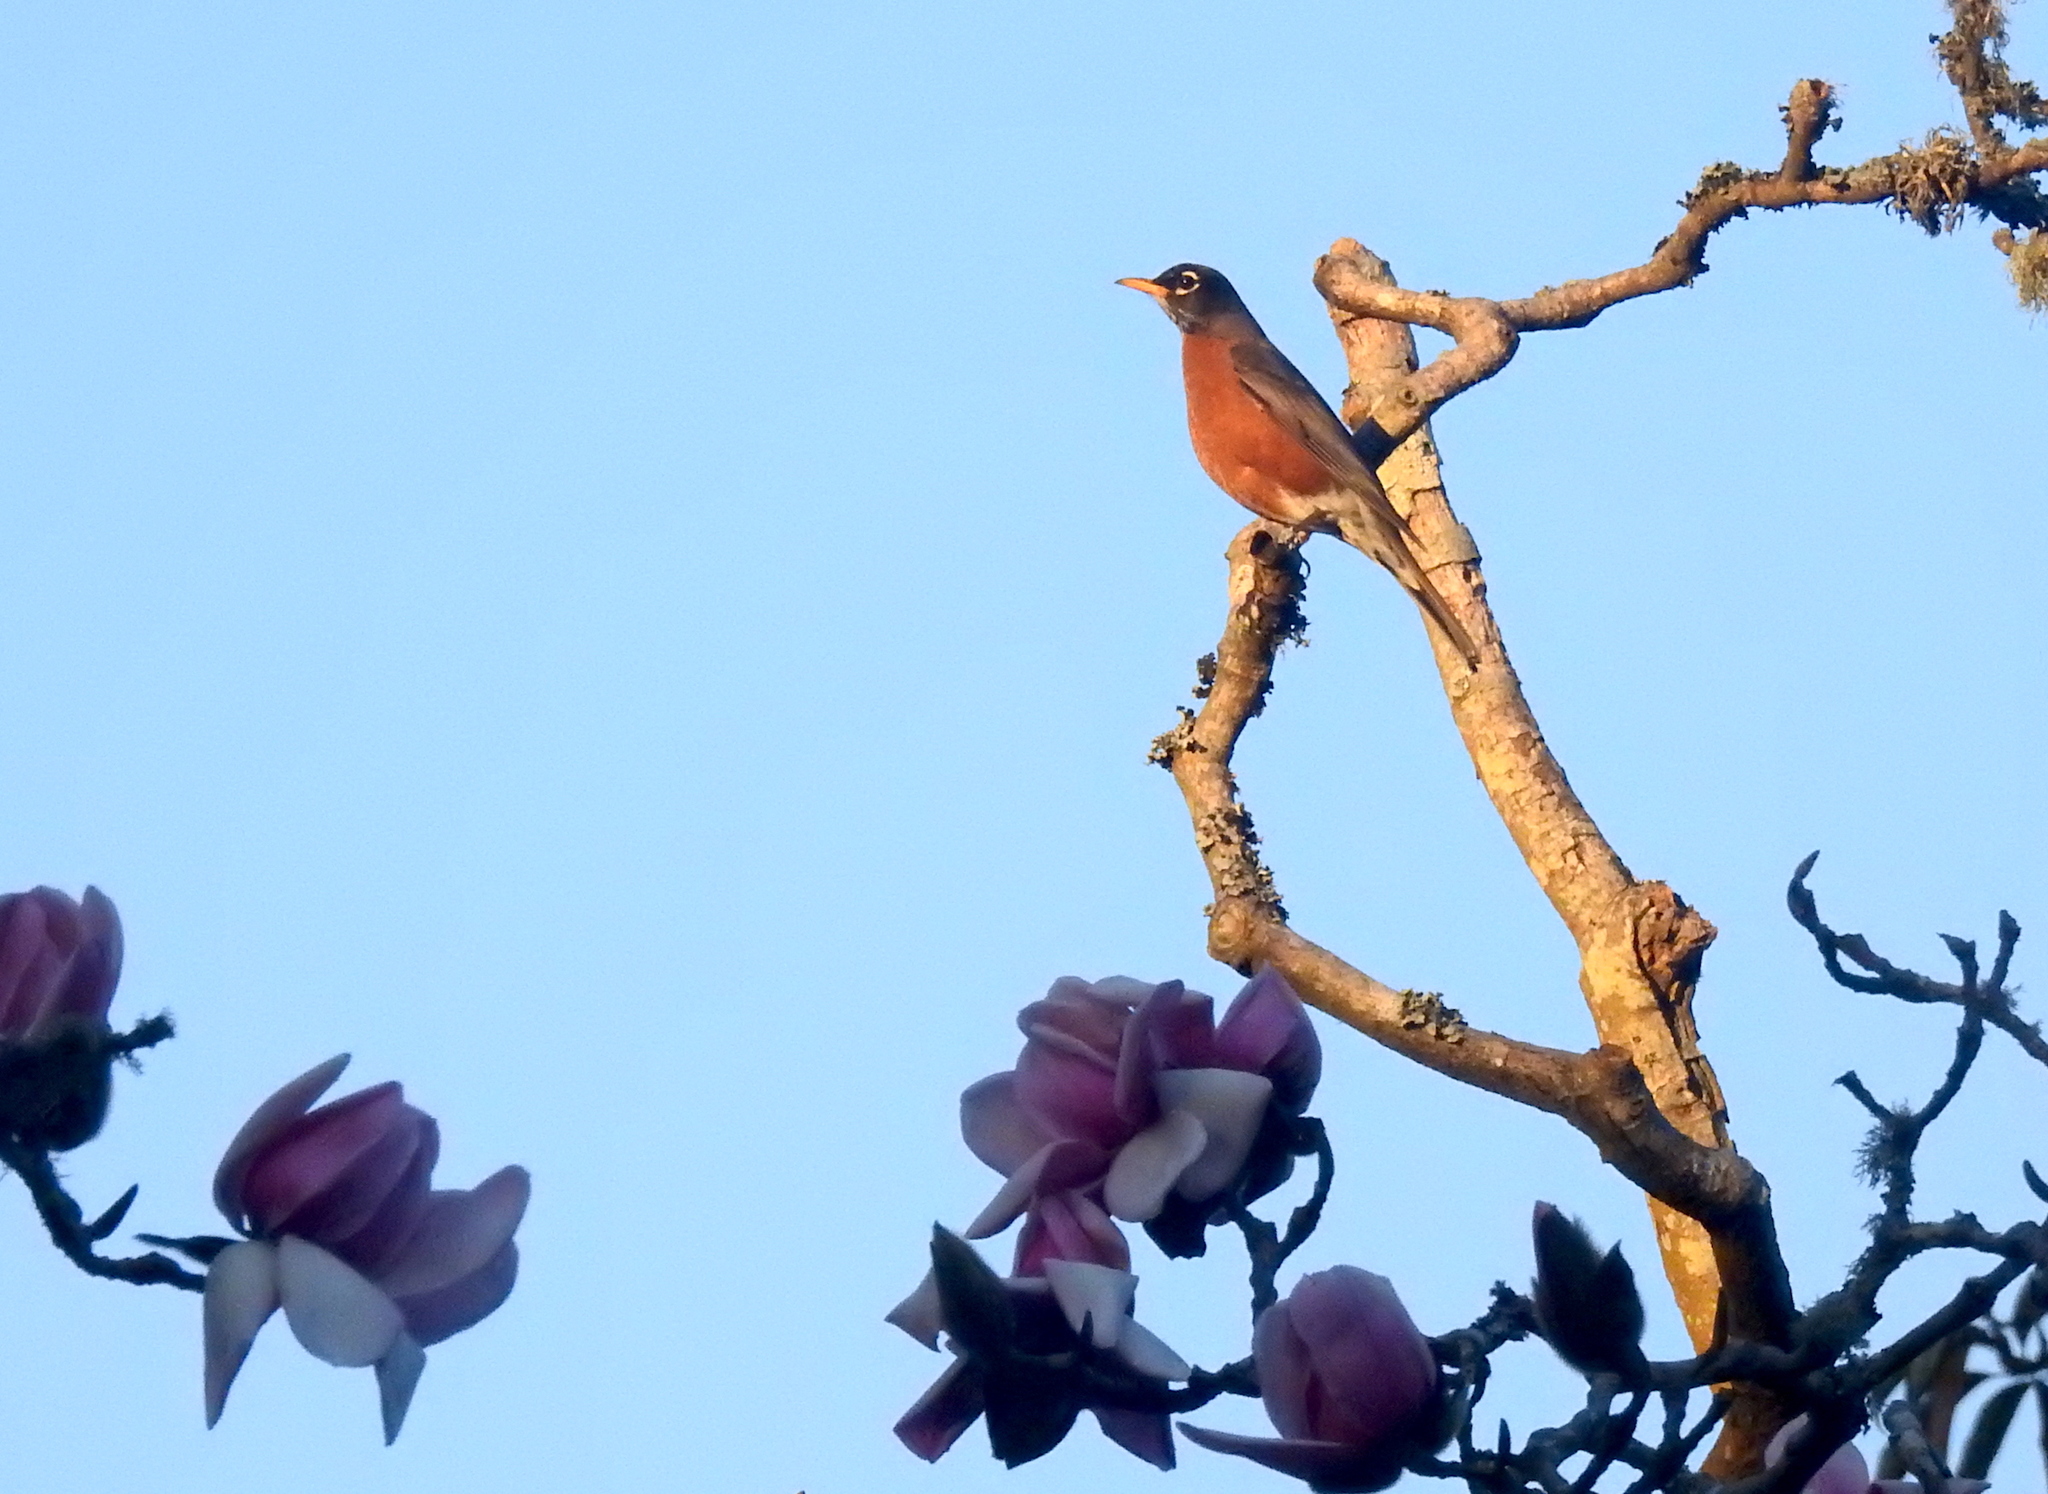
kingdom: Animalia
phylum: Chordata
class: Aves
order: Passeriformes
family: Turdidae
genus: Turdus
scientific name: Turdus migratorius
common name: American robin
